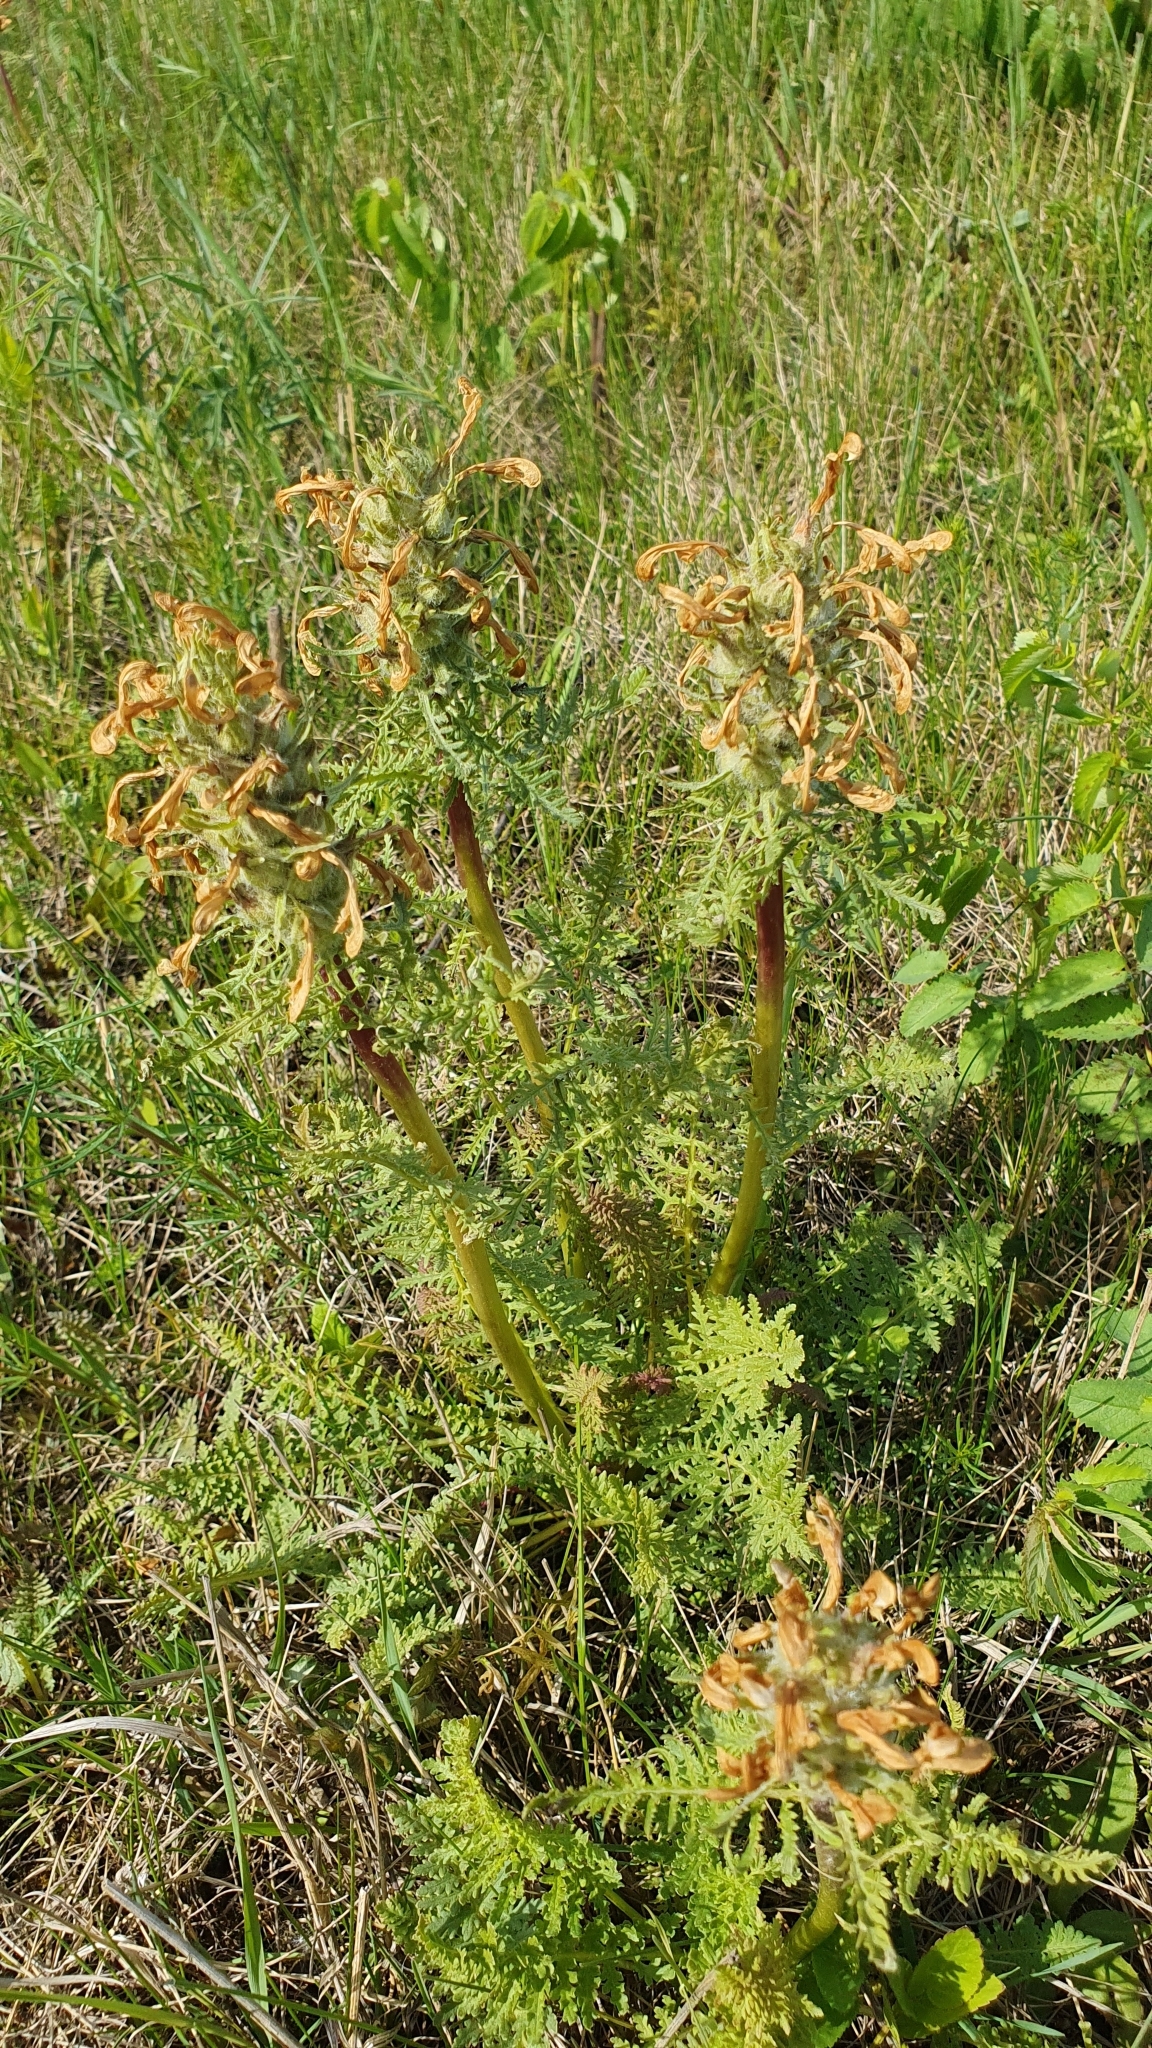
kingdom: Plantae
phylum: Tracheophyta
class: Magnoliopsida
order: Lamiales
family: Orobanchaceae
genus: Pedicularis
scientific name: Pedicularis dasystachys
